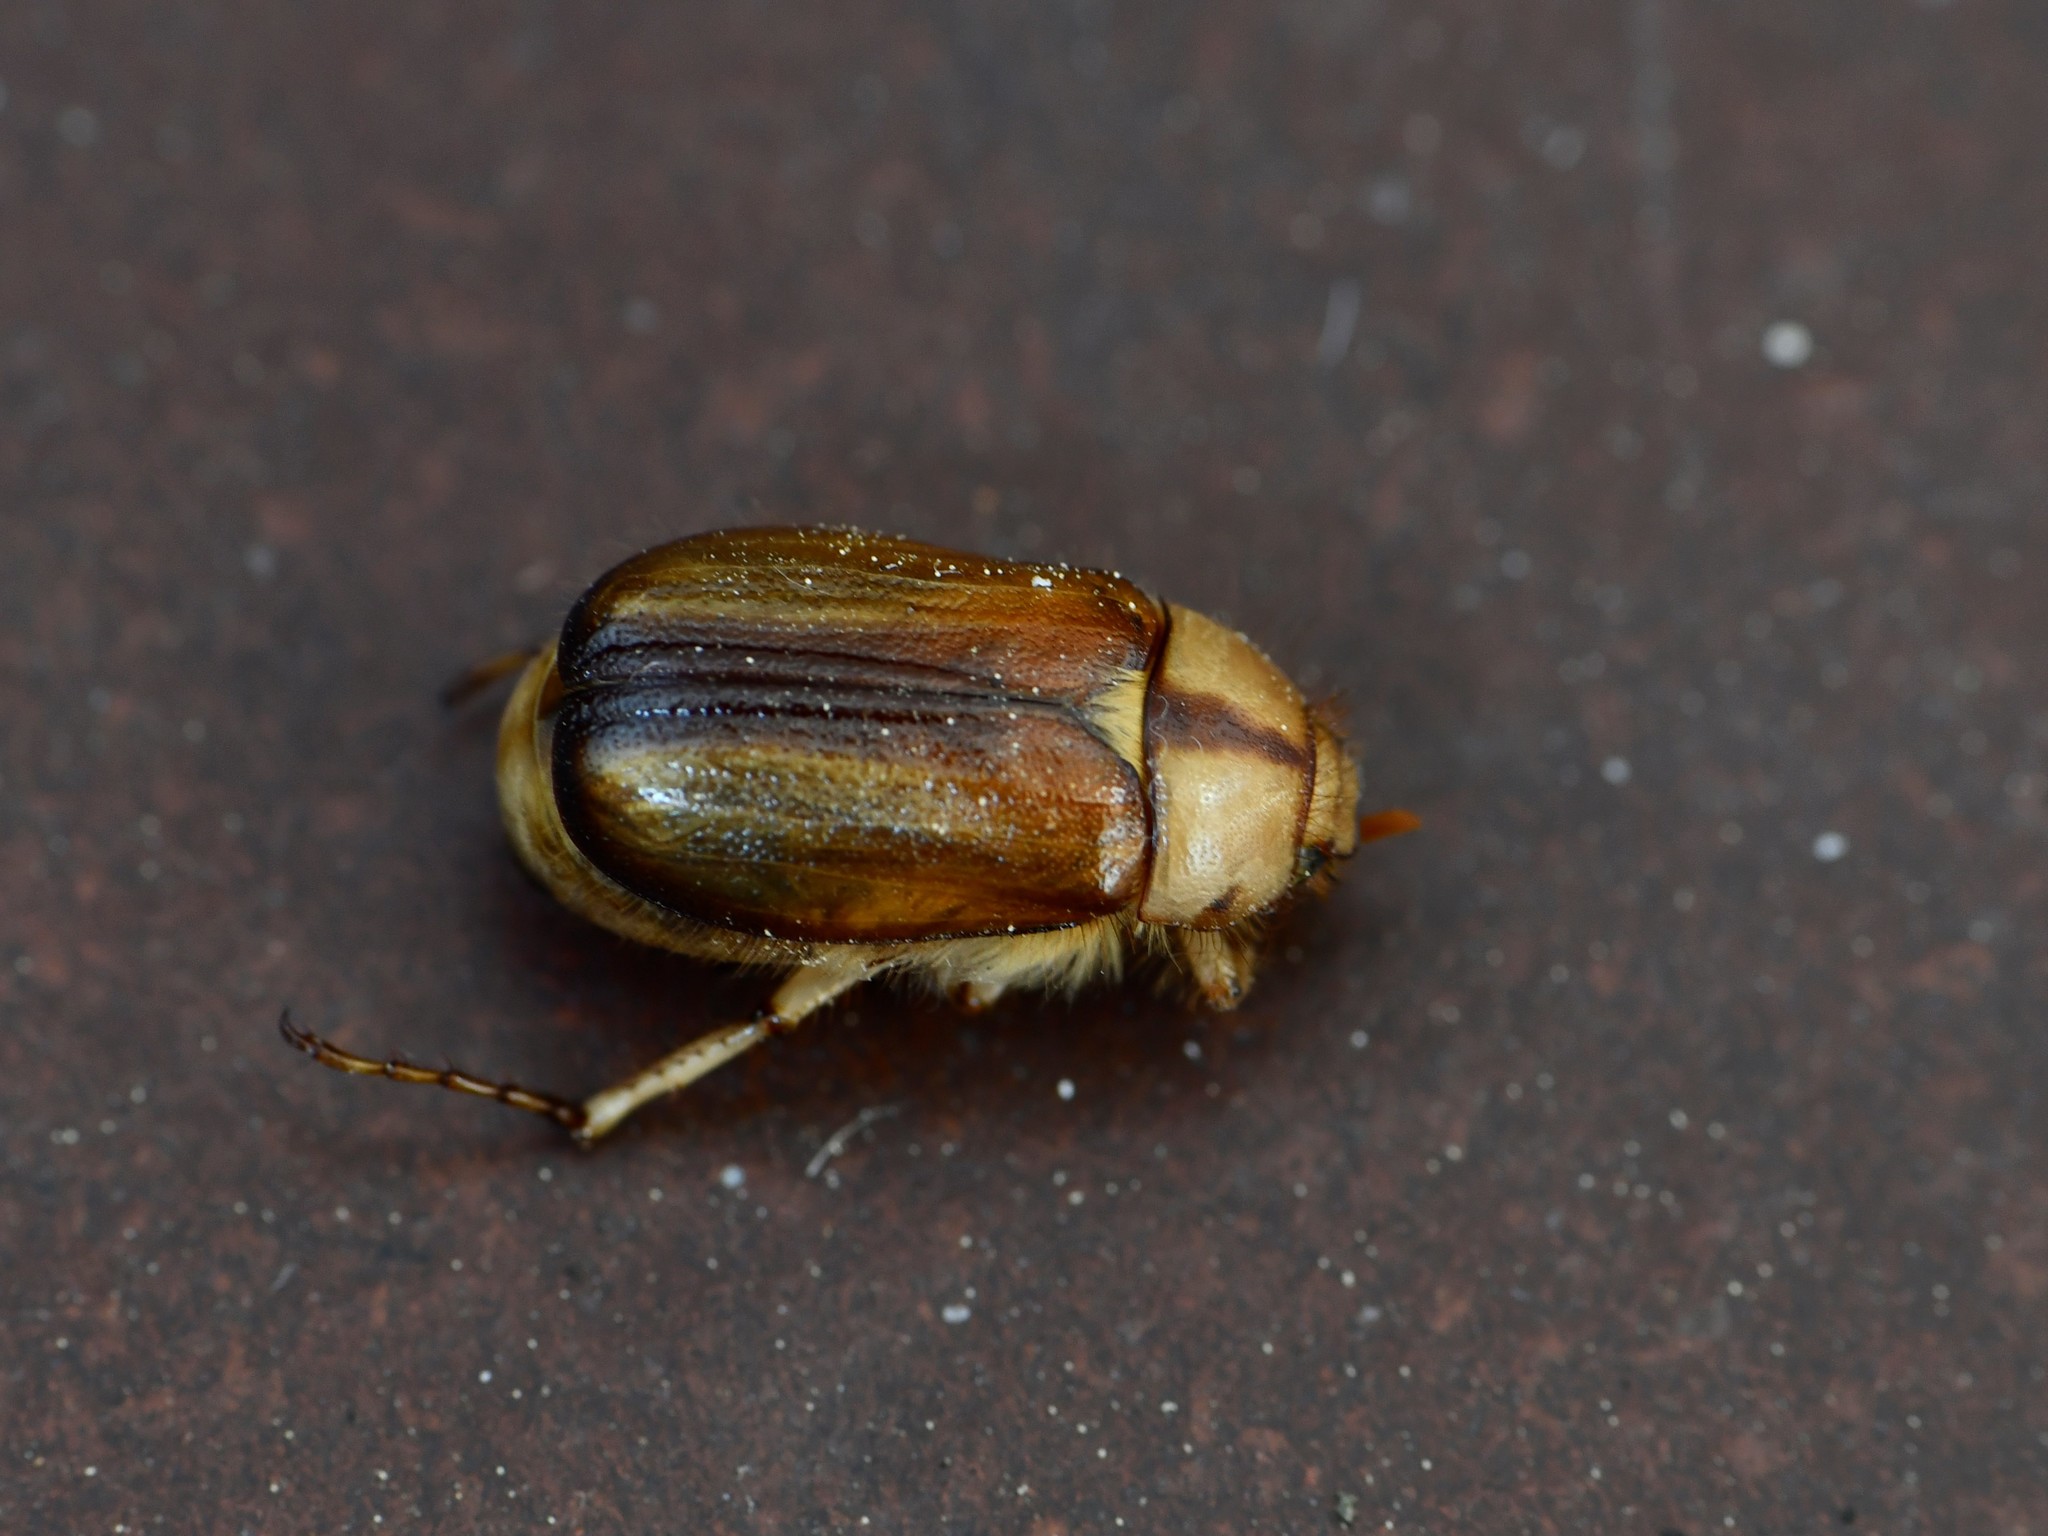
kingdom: Animalia
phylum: Arthropoda
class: Insecta
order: Coleoptera
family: Scarabaeidae
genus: Rhizotrogus
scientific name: Rhizotrogus aestivus
